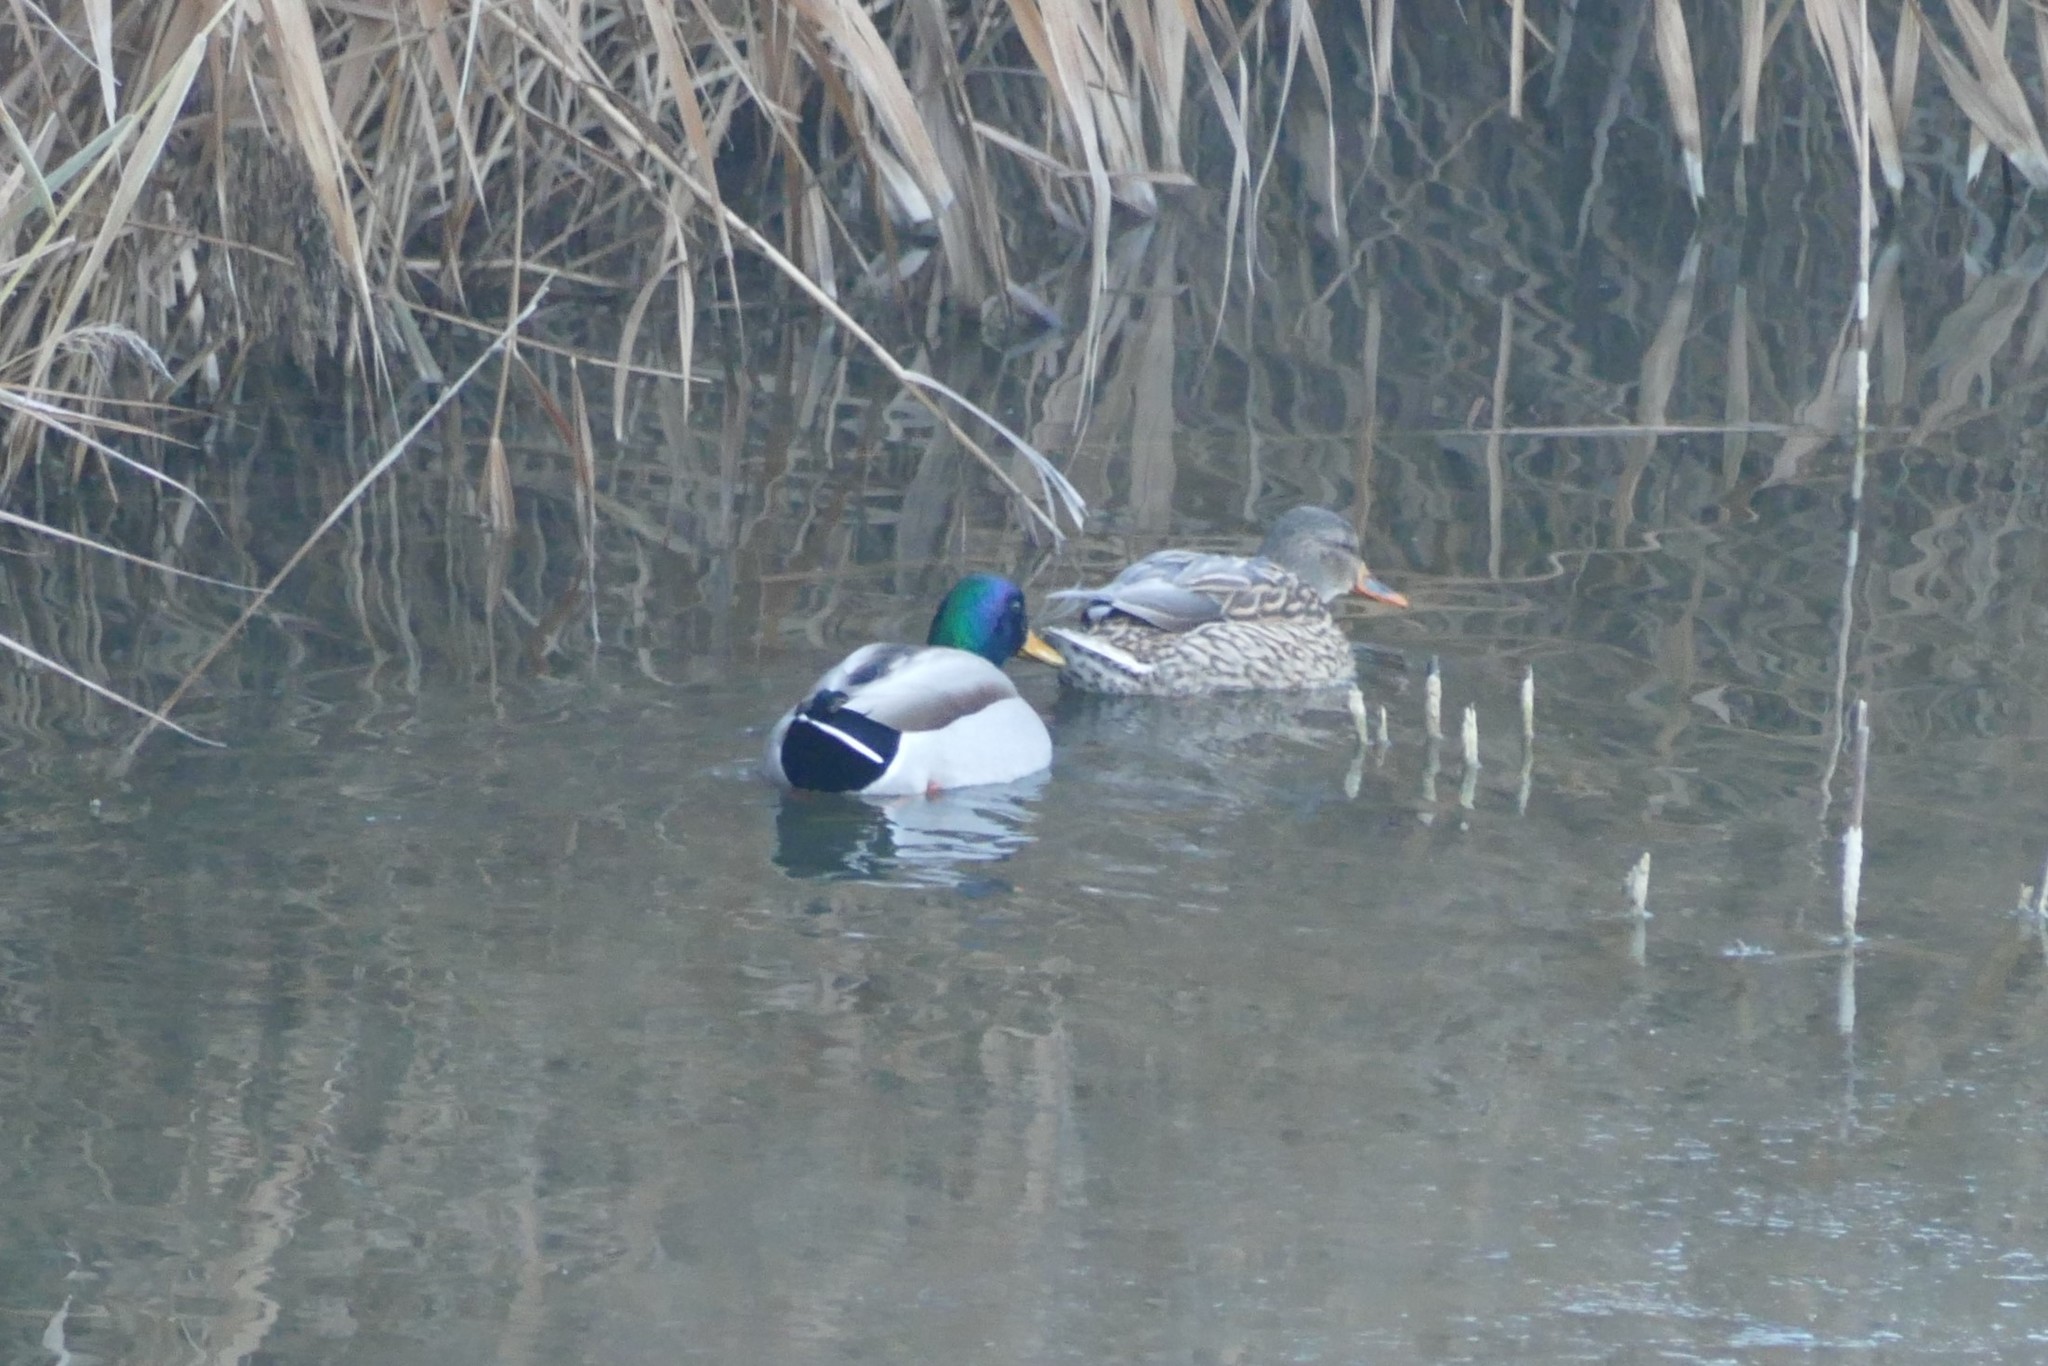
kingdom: Animalia
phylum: Chordata
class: Aves
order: Anseriformes
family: Anatidae
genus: Anas
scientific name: Anas platyrhynchos
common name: Mallard
